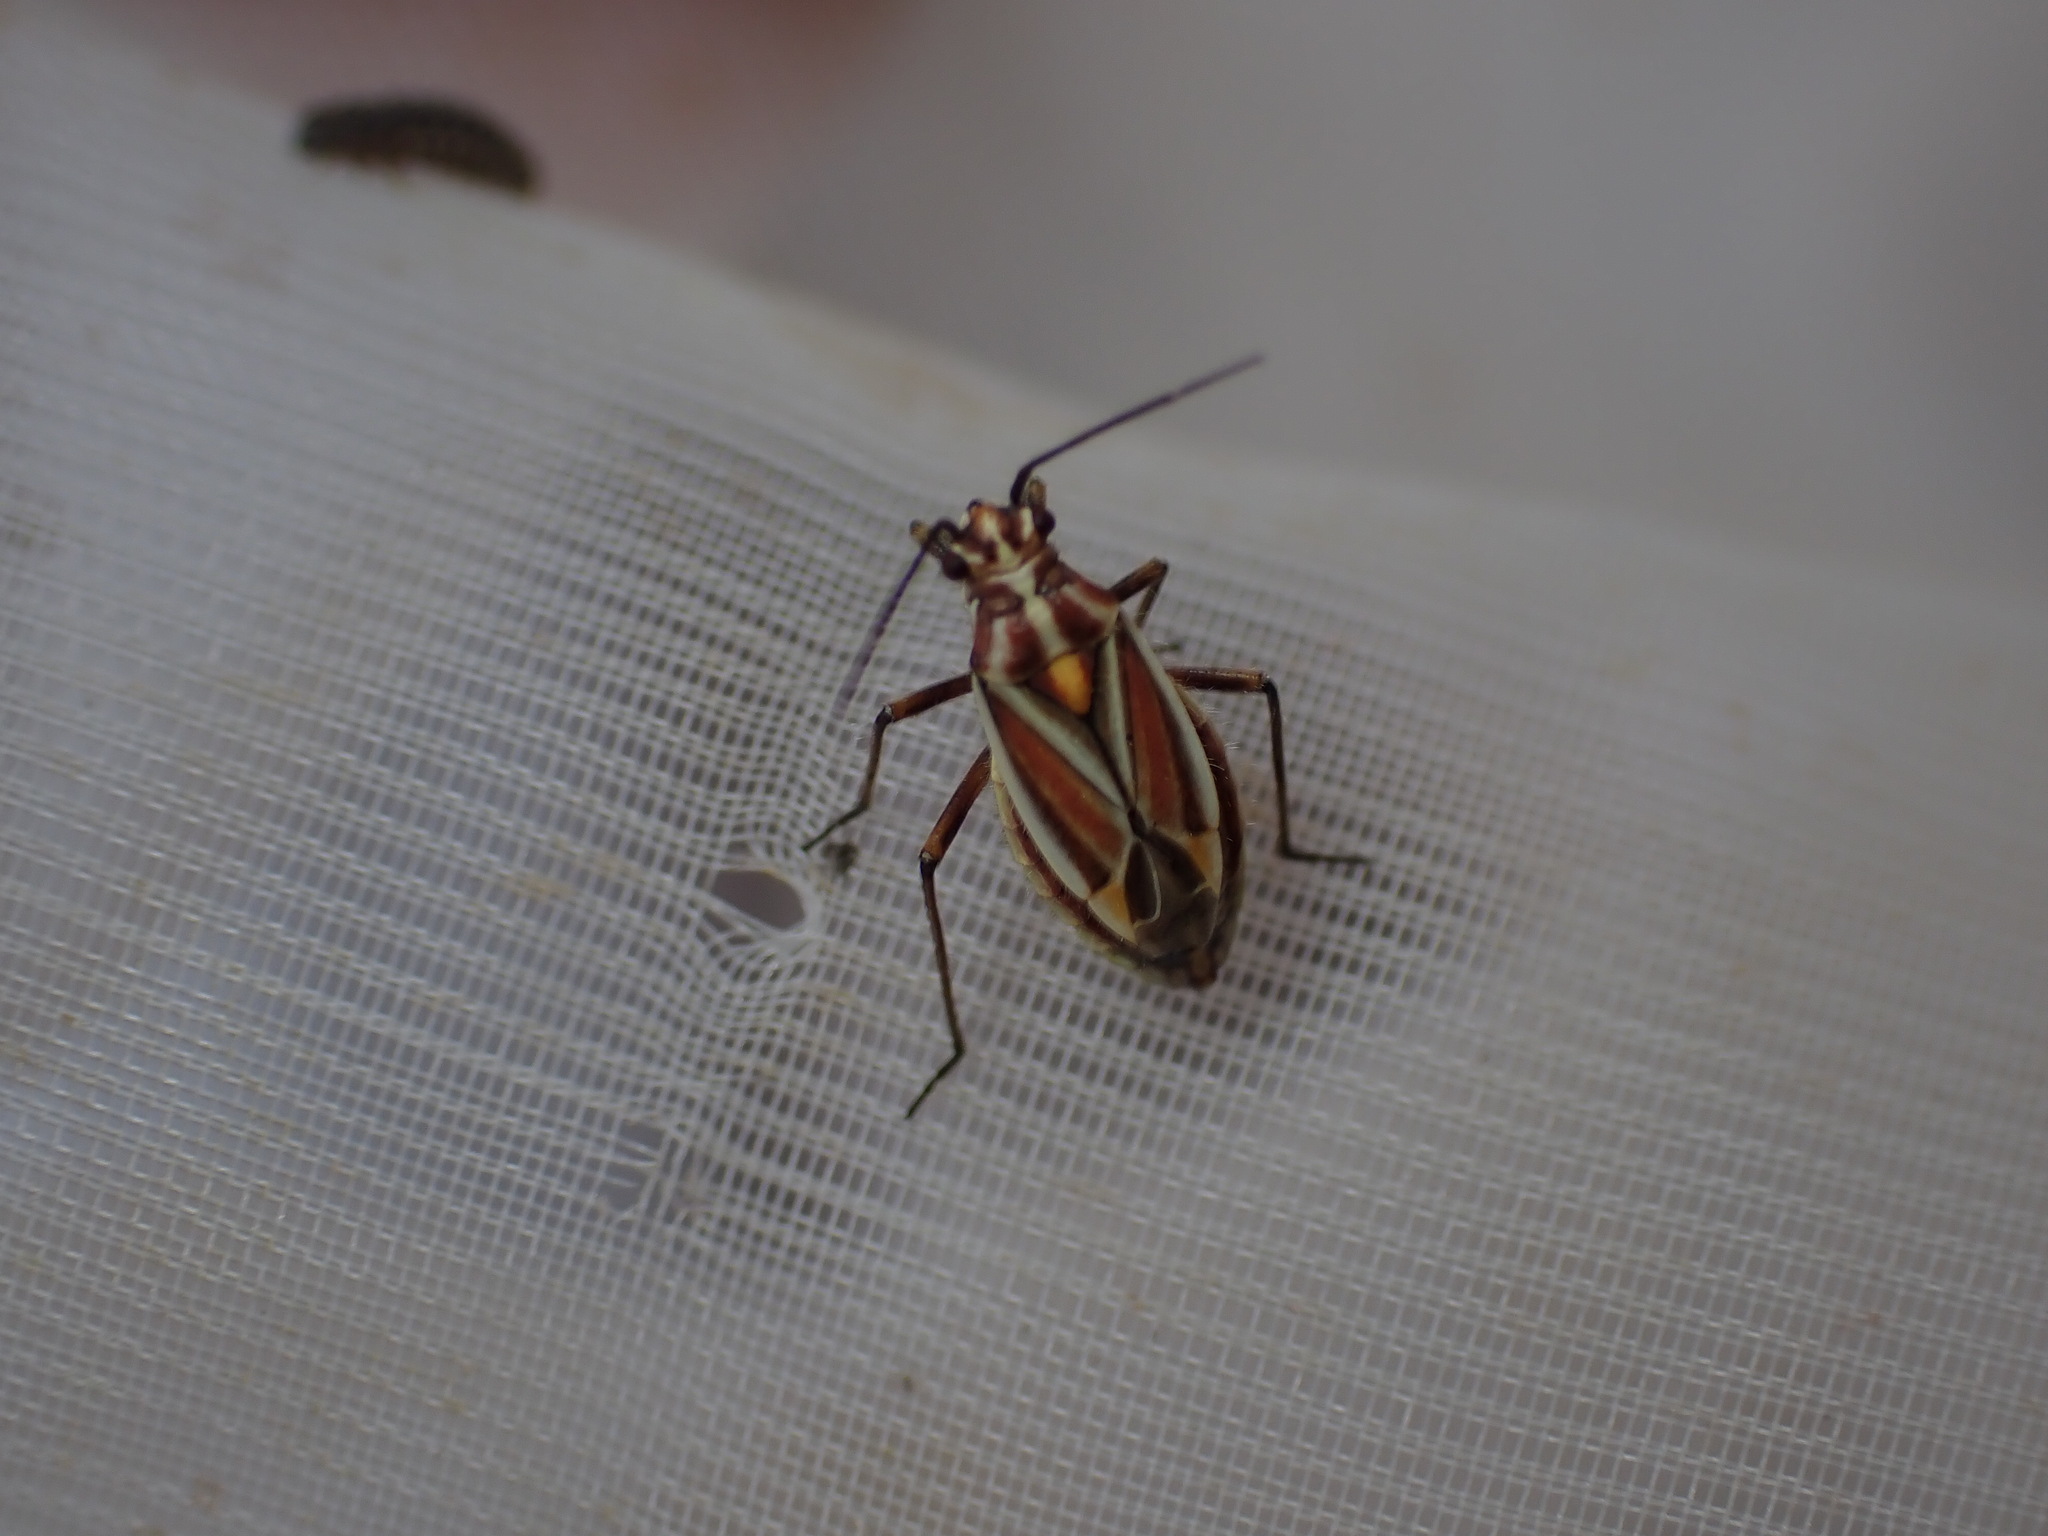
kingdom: Animalia
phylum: Arthropoda
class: Insecta
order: Hemiptera
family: Miridae
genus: Horistus
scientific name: Horistus orientalis
